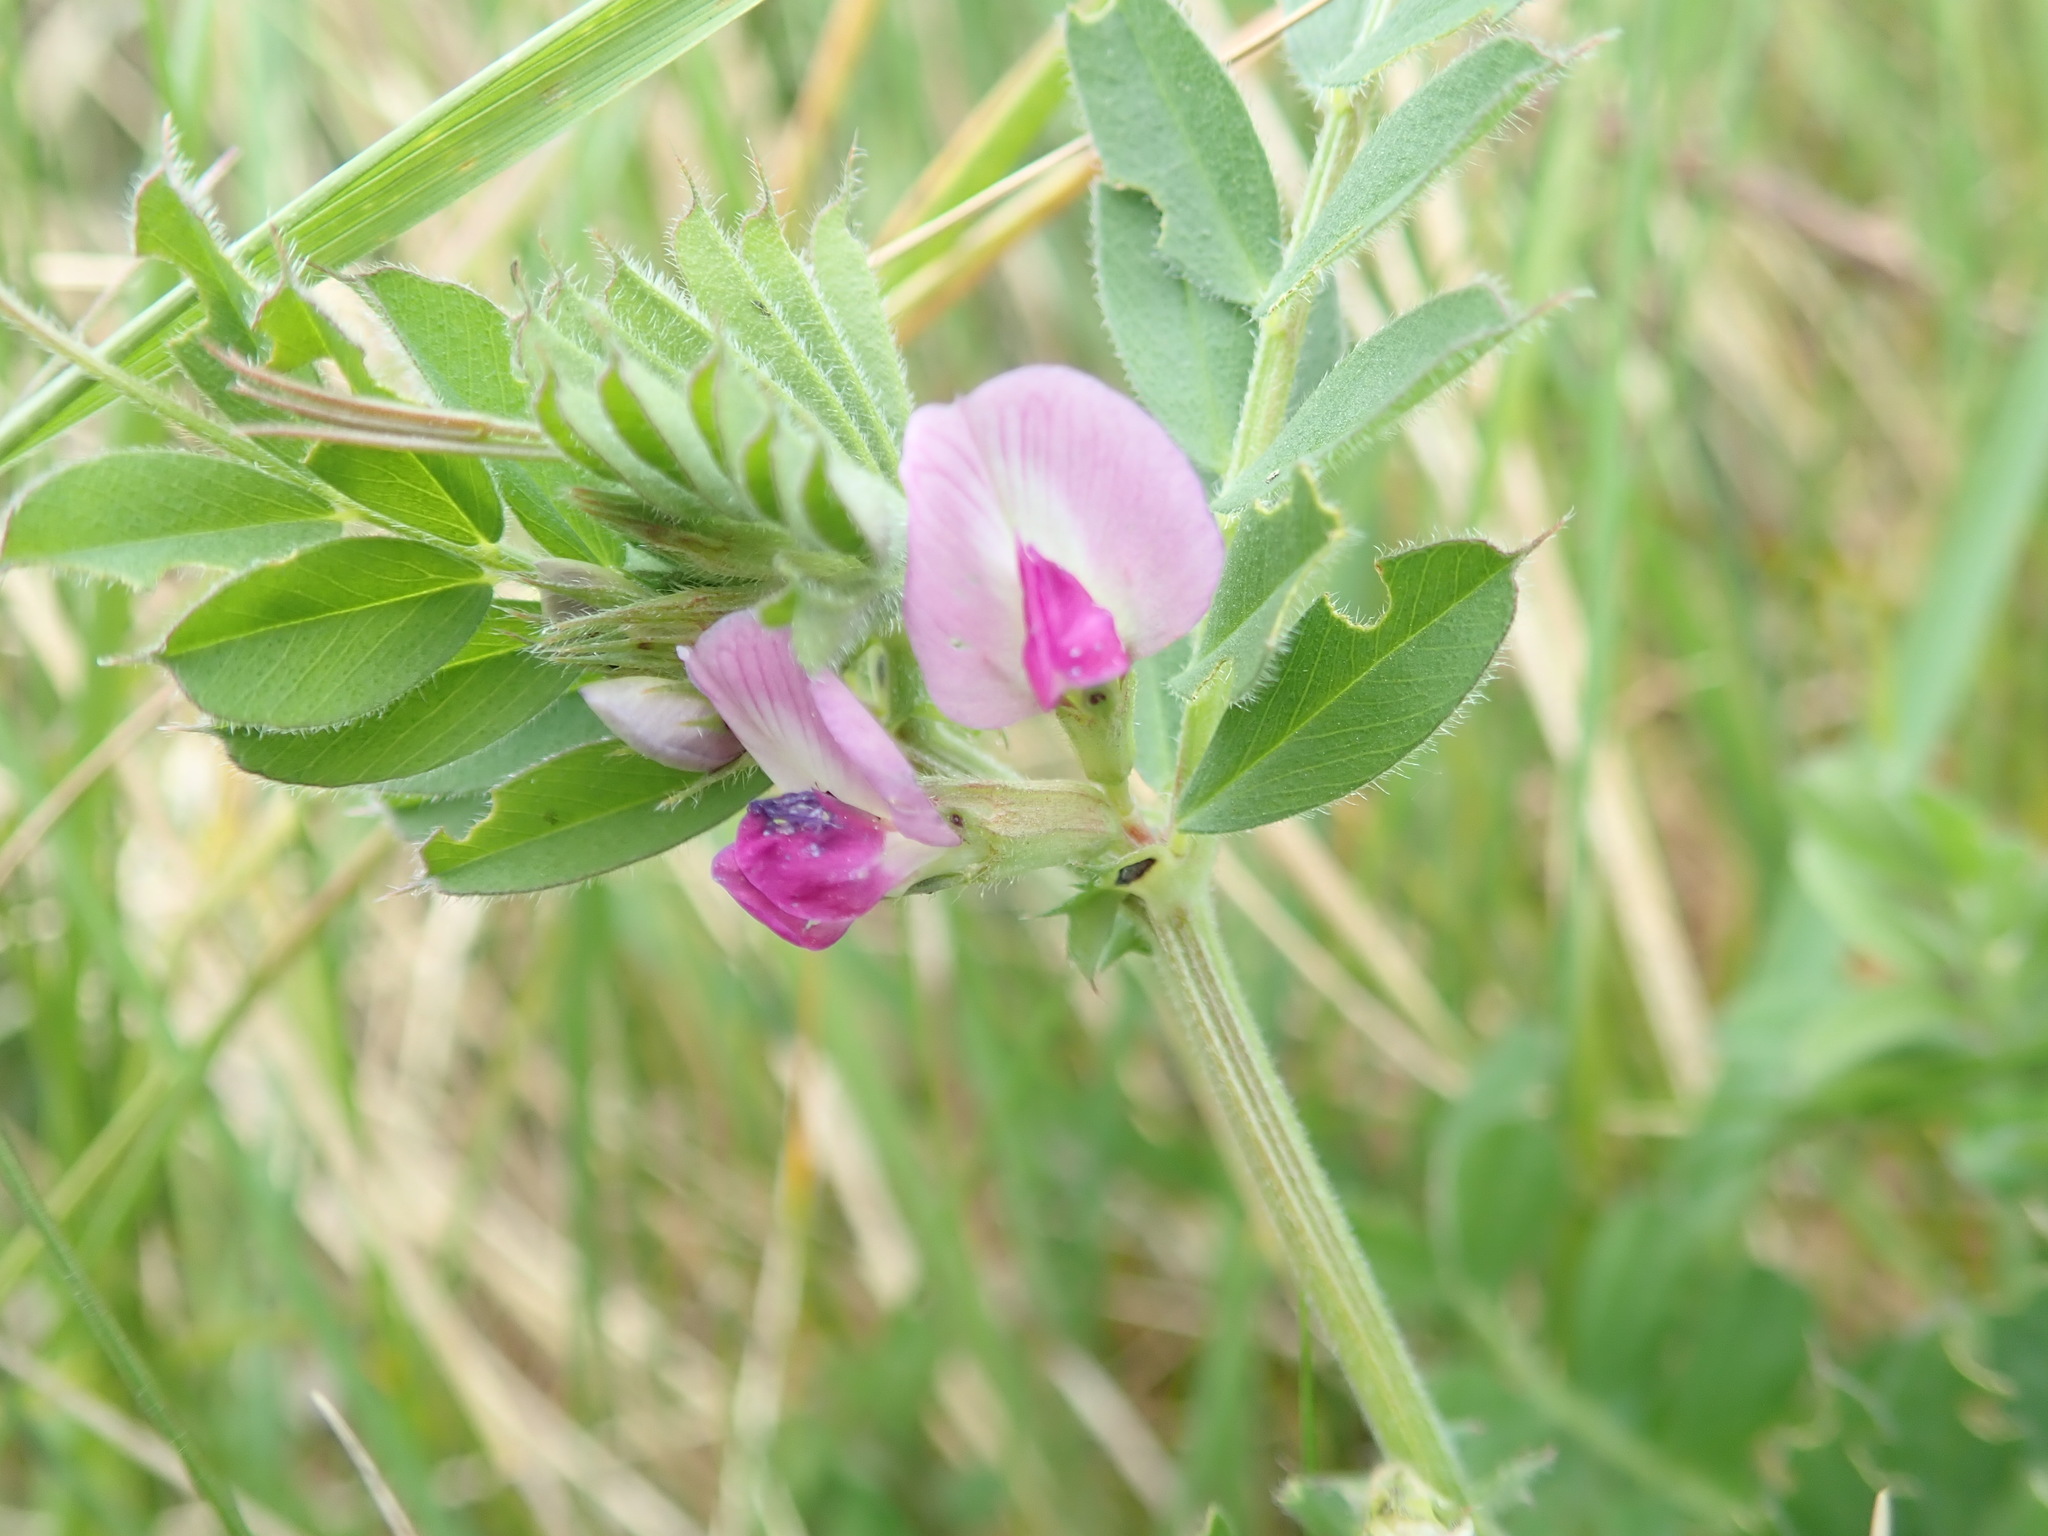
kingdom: Plantae
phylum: Tracheophyta
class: Magnoliopsida
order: Fabales
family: Fabaceae
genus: Vicia
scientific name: Vicia sativa
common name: Garden vetch
